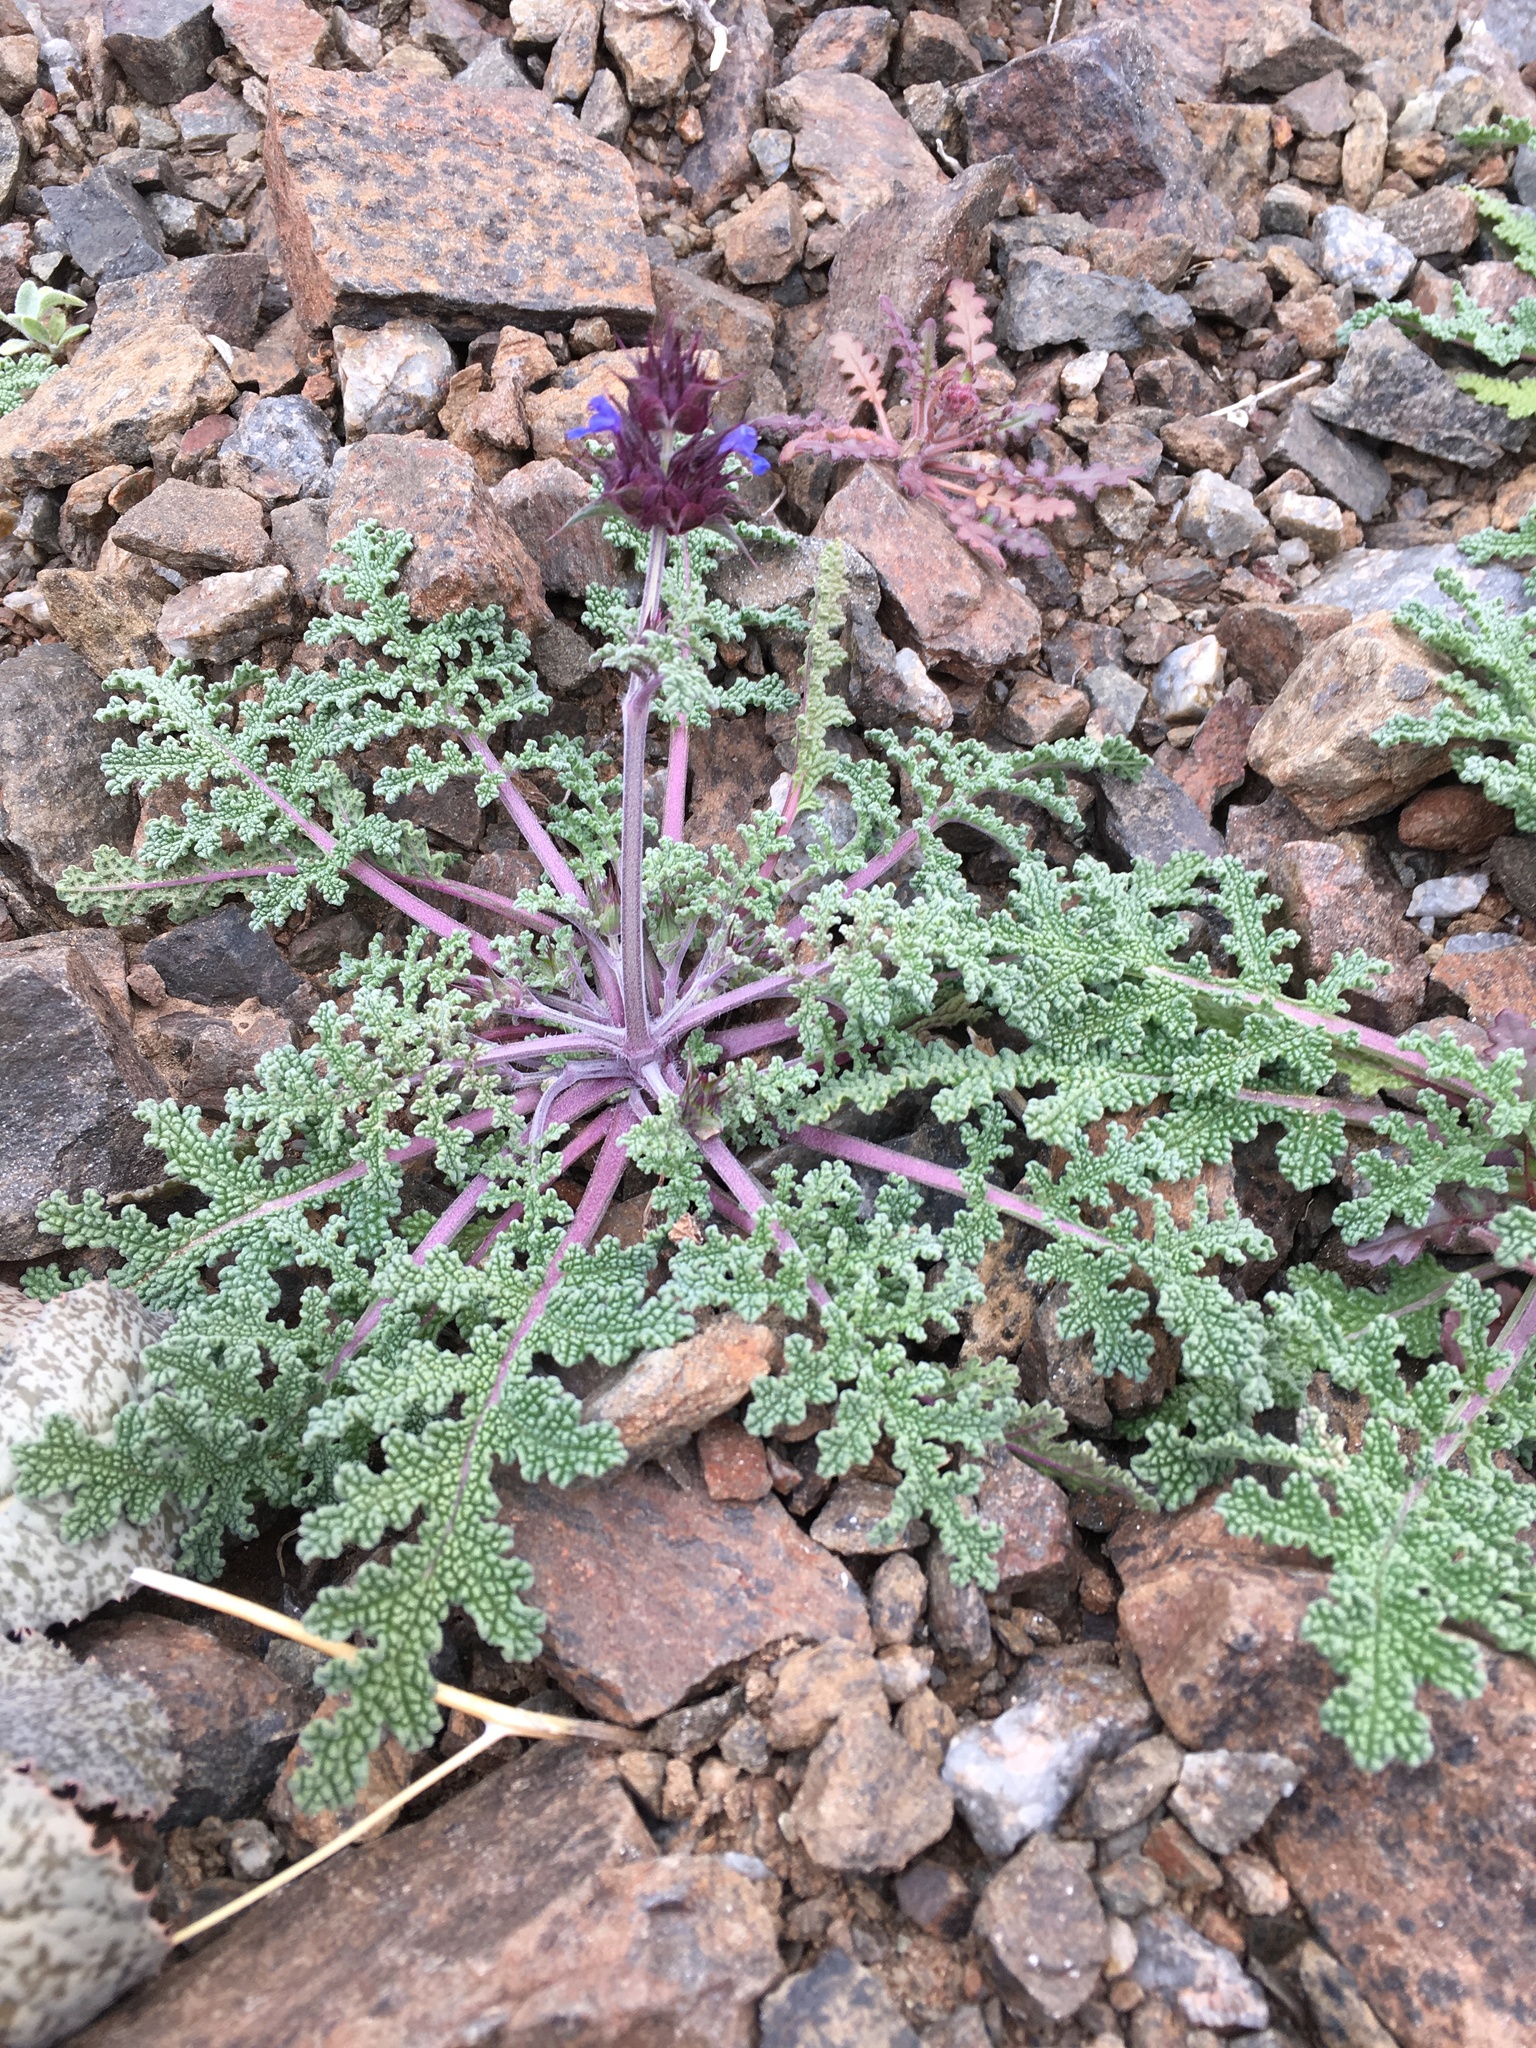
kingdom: Plantae
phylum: Tracheophyta
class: Magnoliopsida
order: Lamiales
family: Lamiaceae
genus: Salvia
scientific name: Salvia columbariae
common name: Chia
